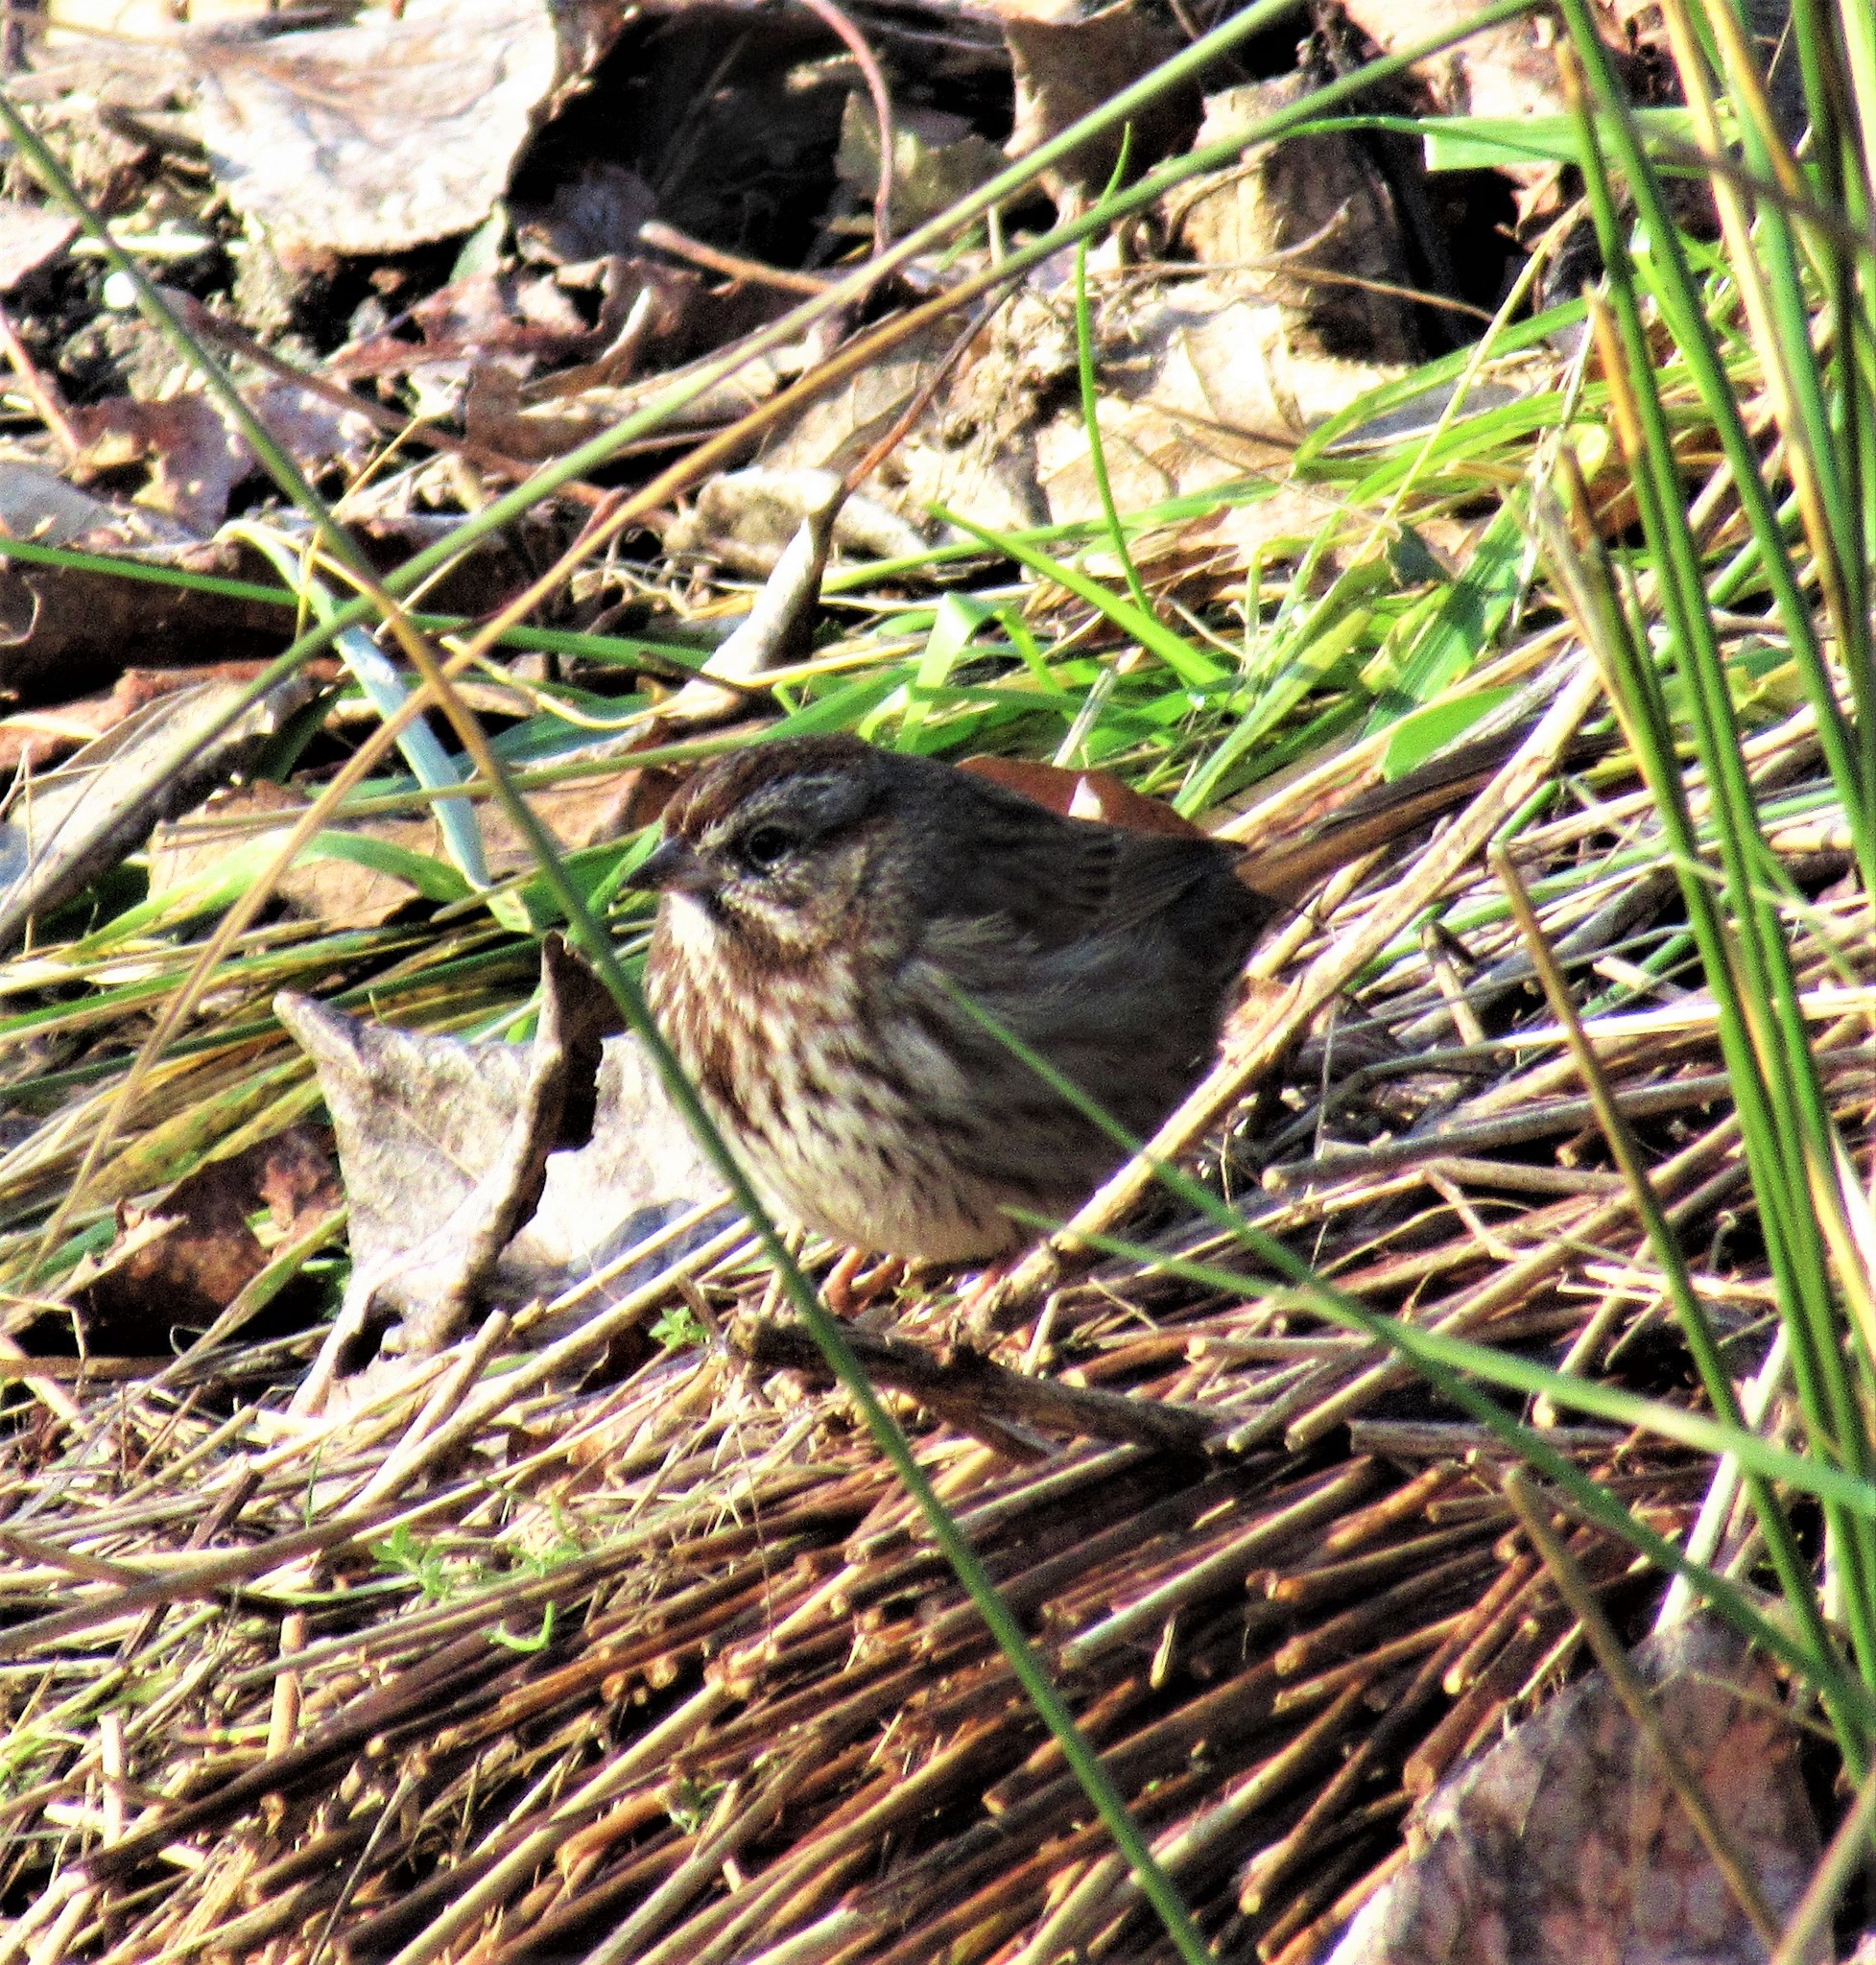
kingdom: Animalia
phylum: Chordata
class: Aves
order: Passeriformes
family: Passerellidae
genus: Melospiza
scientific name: Melospiza melodia
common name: Song sparrow
